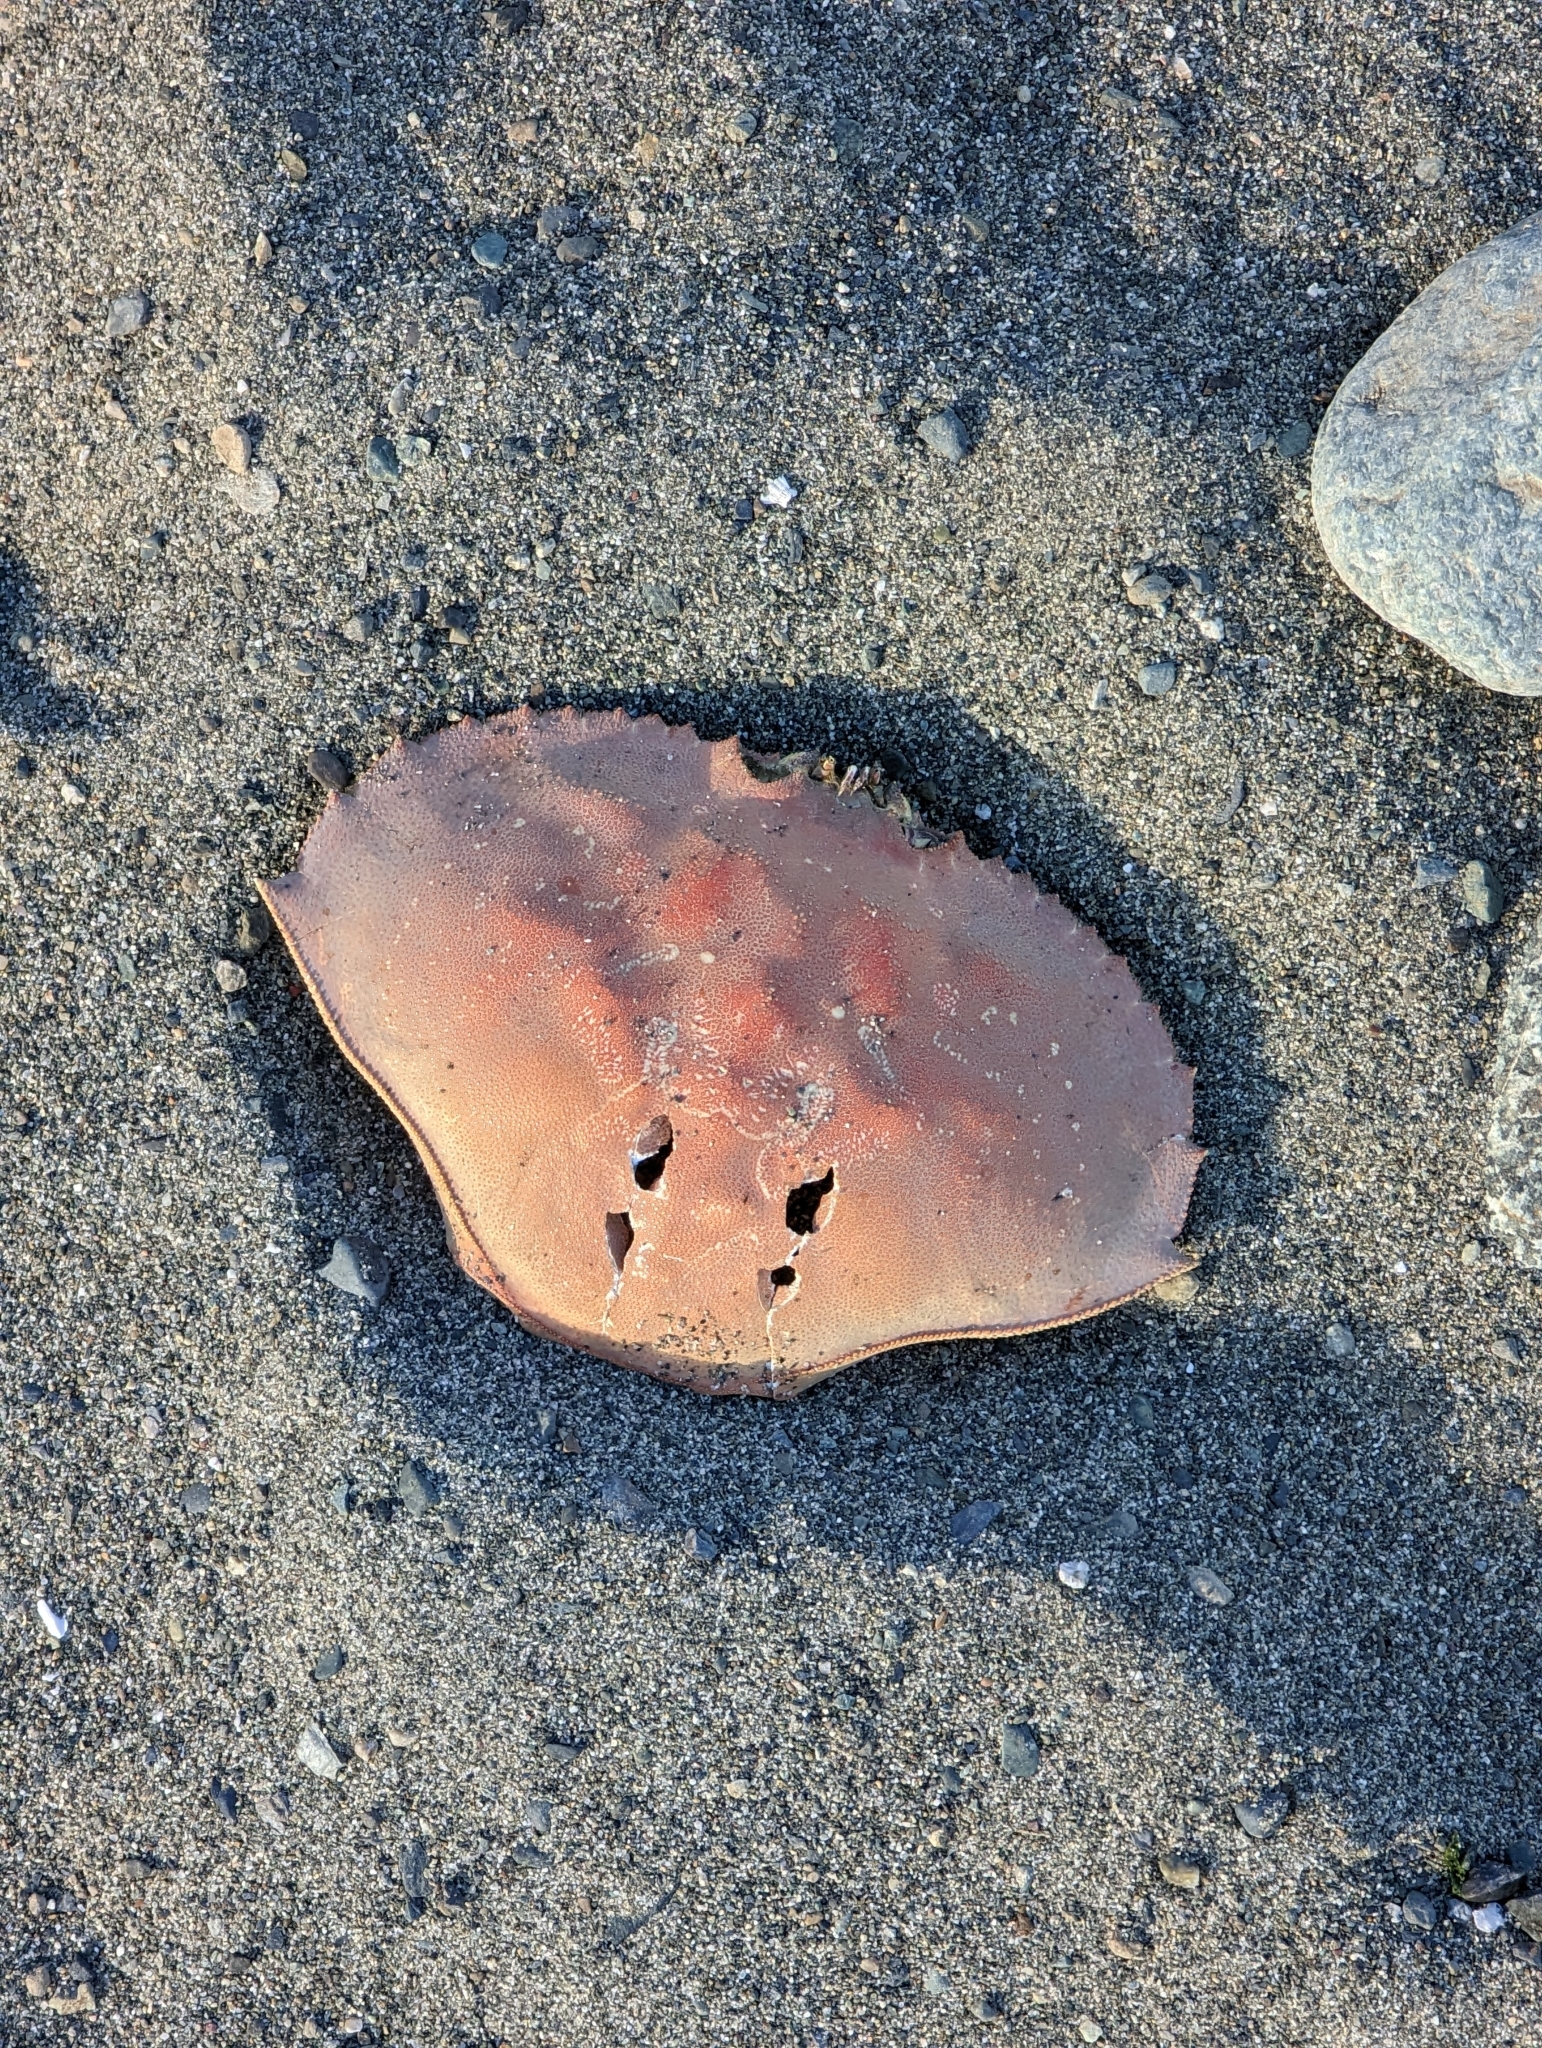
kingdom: Animalia
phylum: Arthropoda
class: Malacostraca
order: Decapoda
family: Cancridae
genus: Metacarcinus
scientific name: Metacarcinus magister
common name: Californian crab
